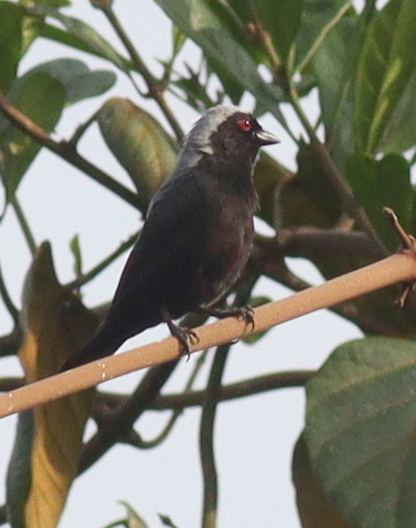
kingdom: Animalia
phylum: Chordata
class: Aves
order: Passeriformes
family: Estrildidae
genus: Nigrita
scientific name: Nigrita canicapillus
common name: Grey-headed nigrita
